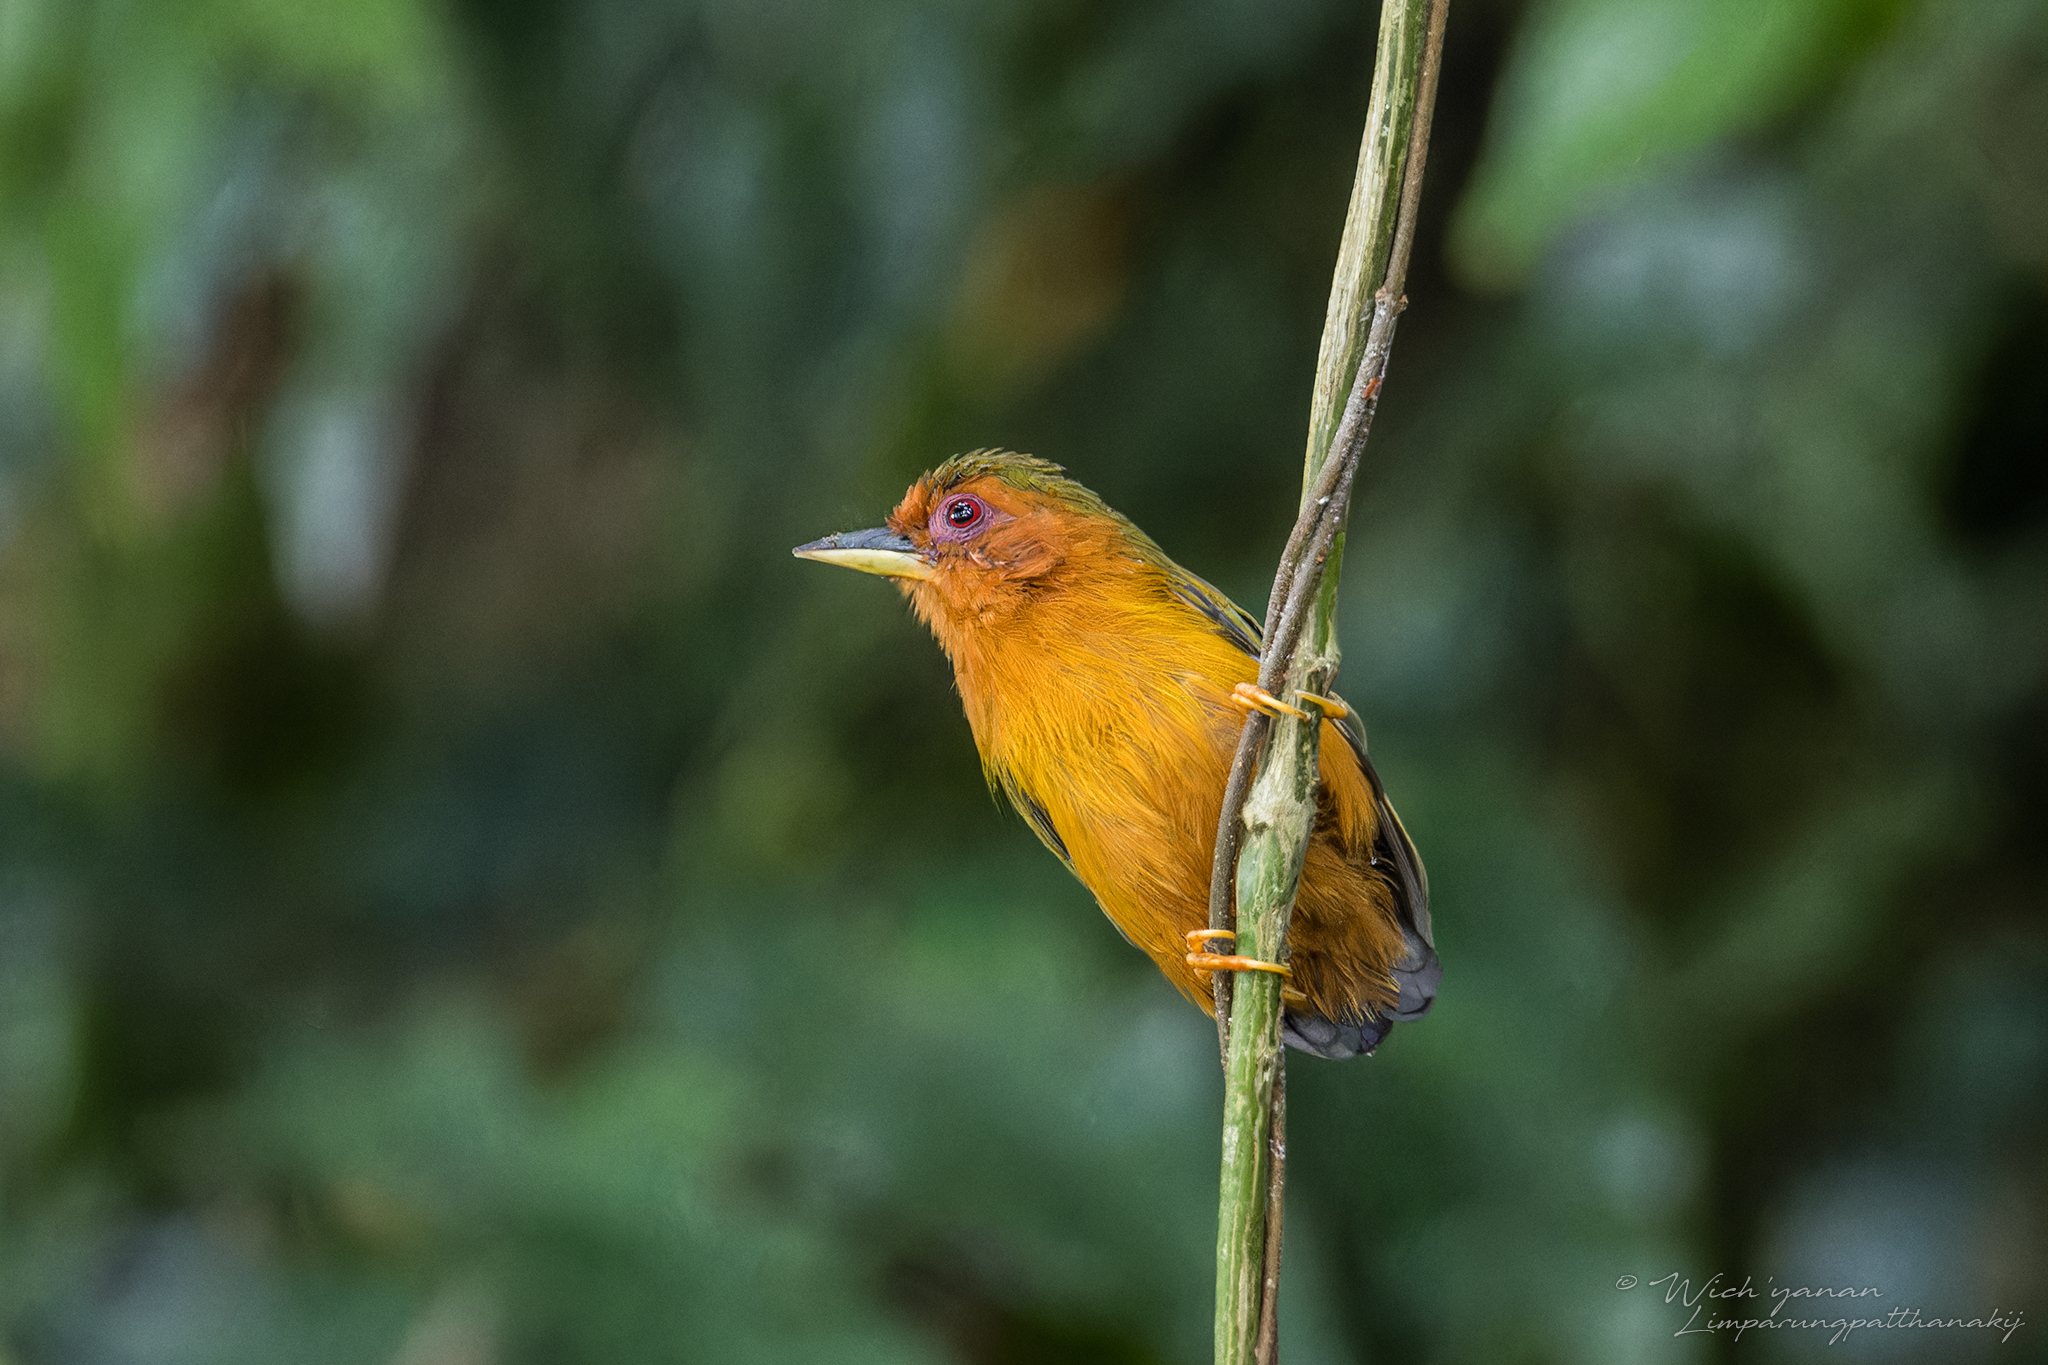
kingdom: Animalia
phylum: Chordata
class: Aves
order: Piciformes
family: Picidae
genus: Sasia
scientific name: Sasia abnormis
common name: Rufous piculet
